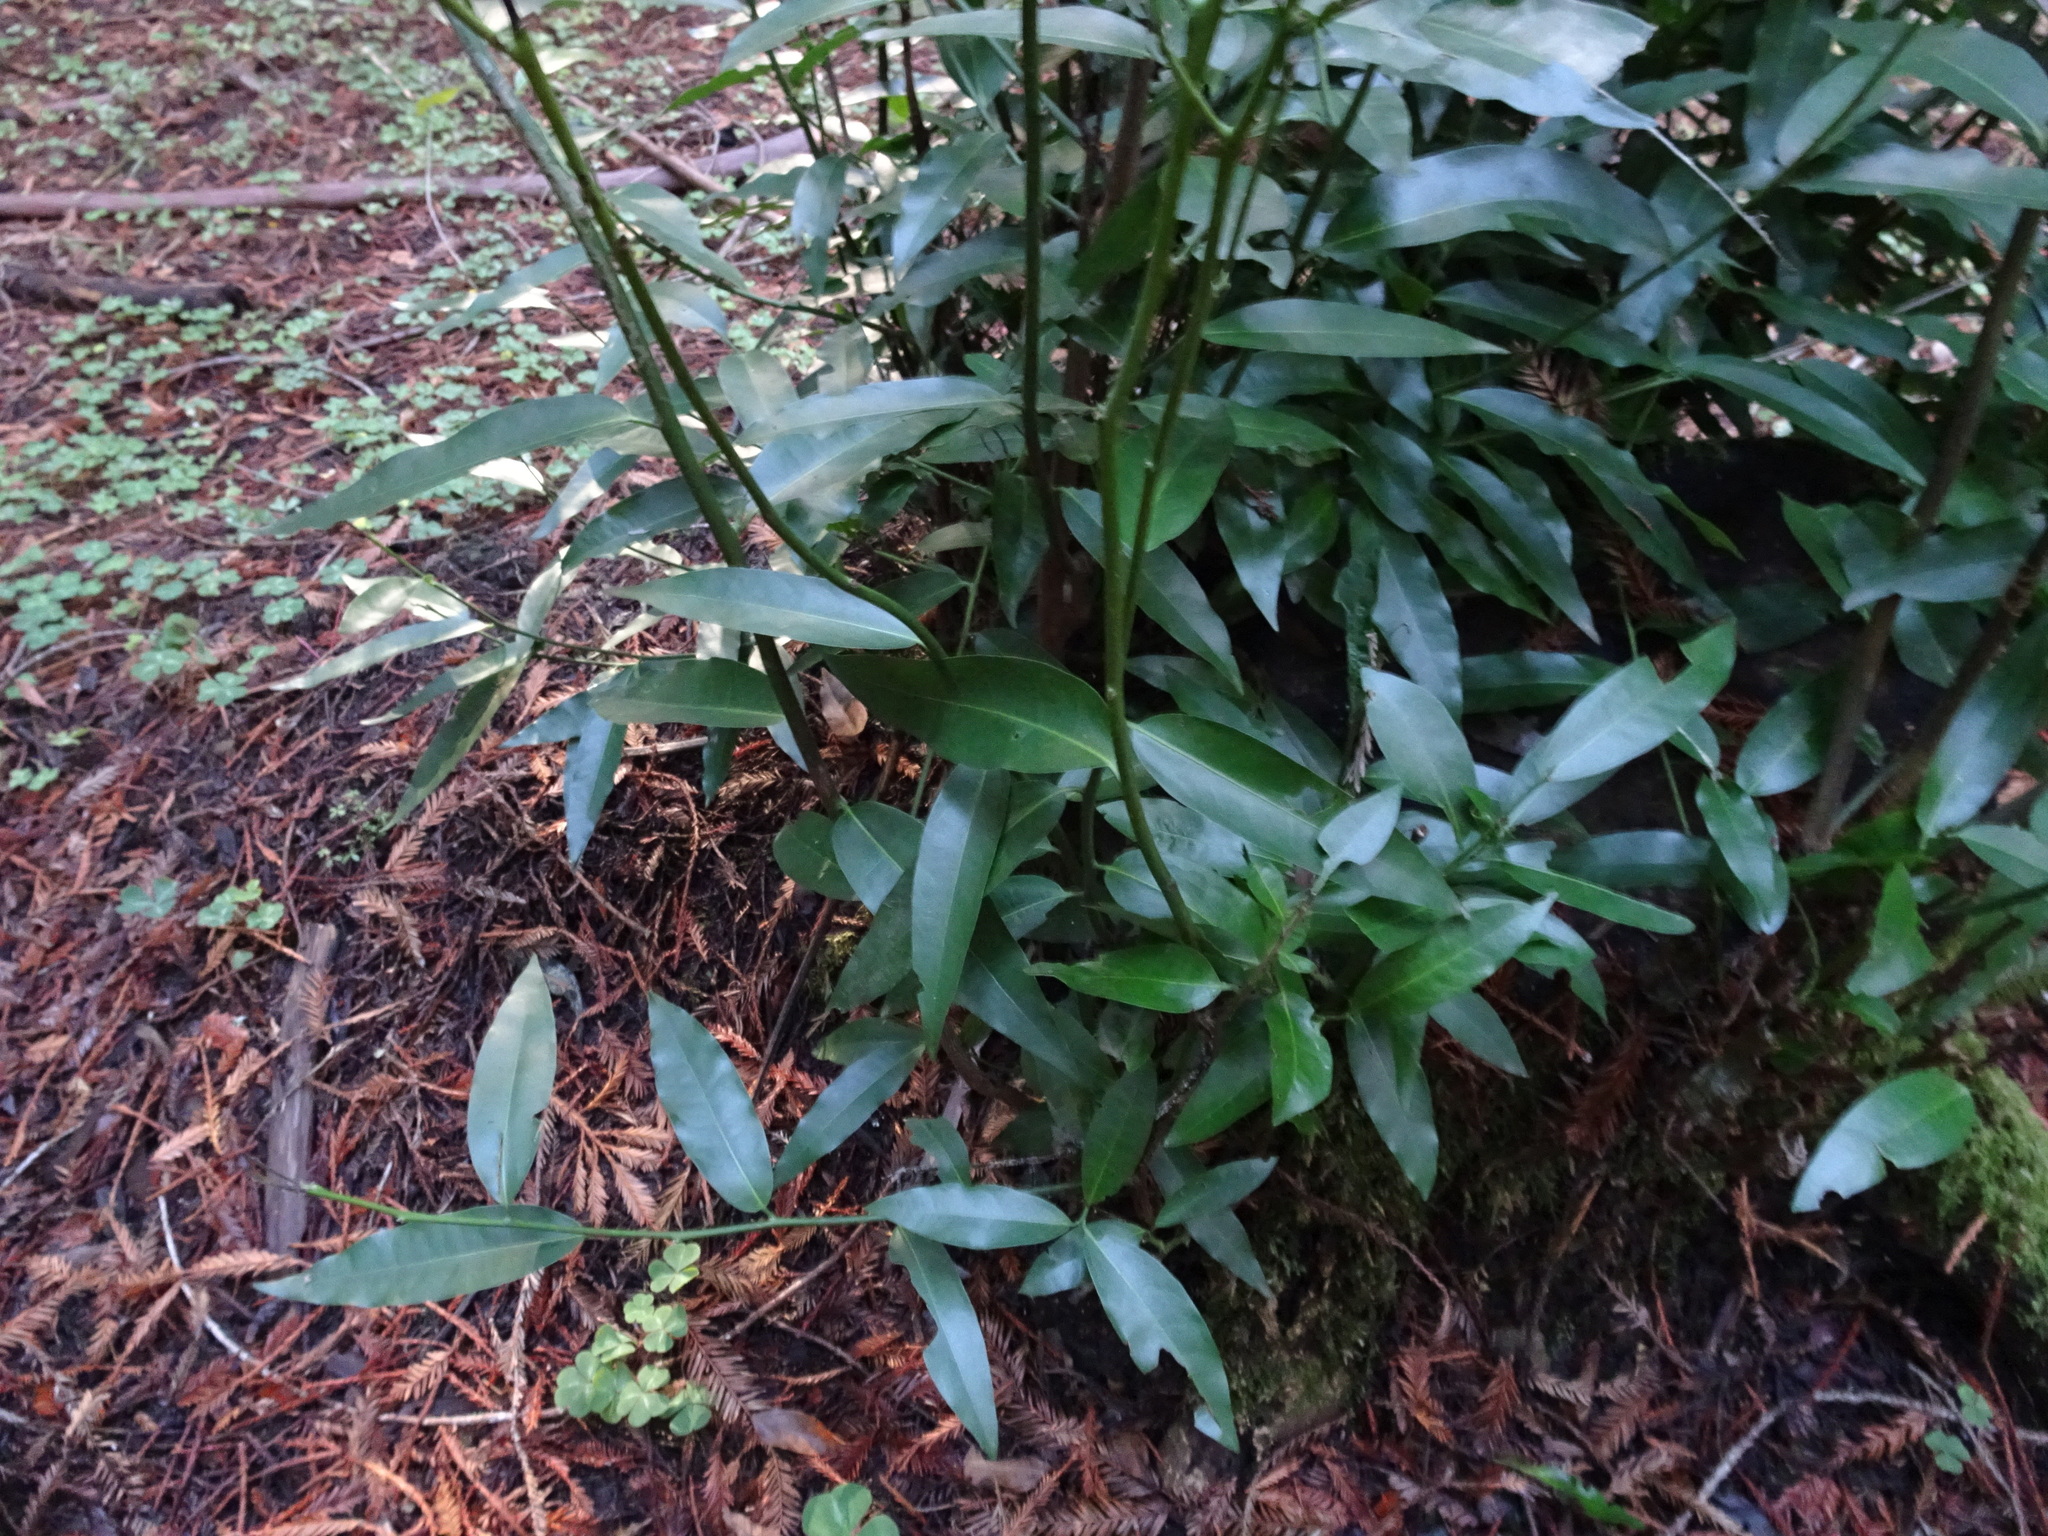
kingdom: Plantae
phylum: Tracheophyta
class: Magnoliopsida
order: Laurales
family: Lauraceae
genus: Umbellularia
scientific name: Umbellularia californica
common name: California bay
